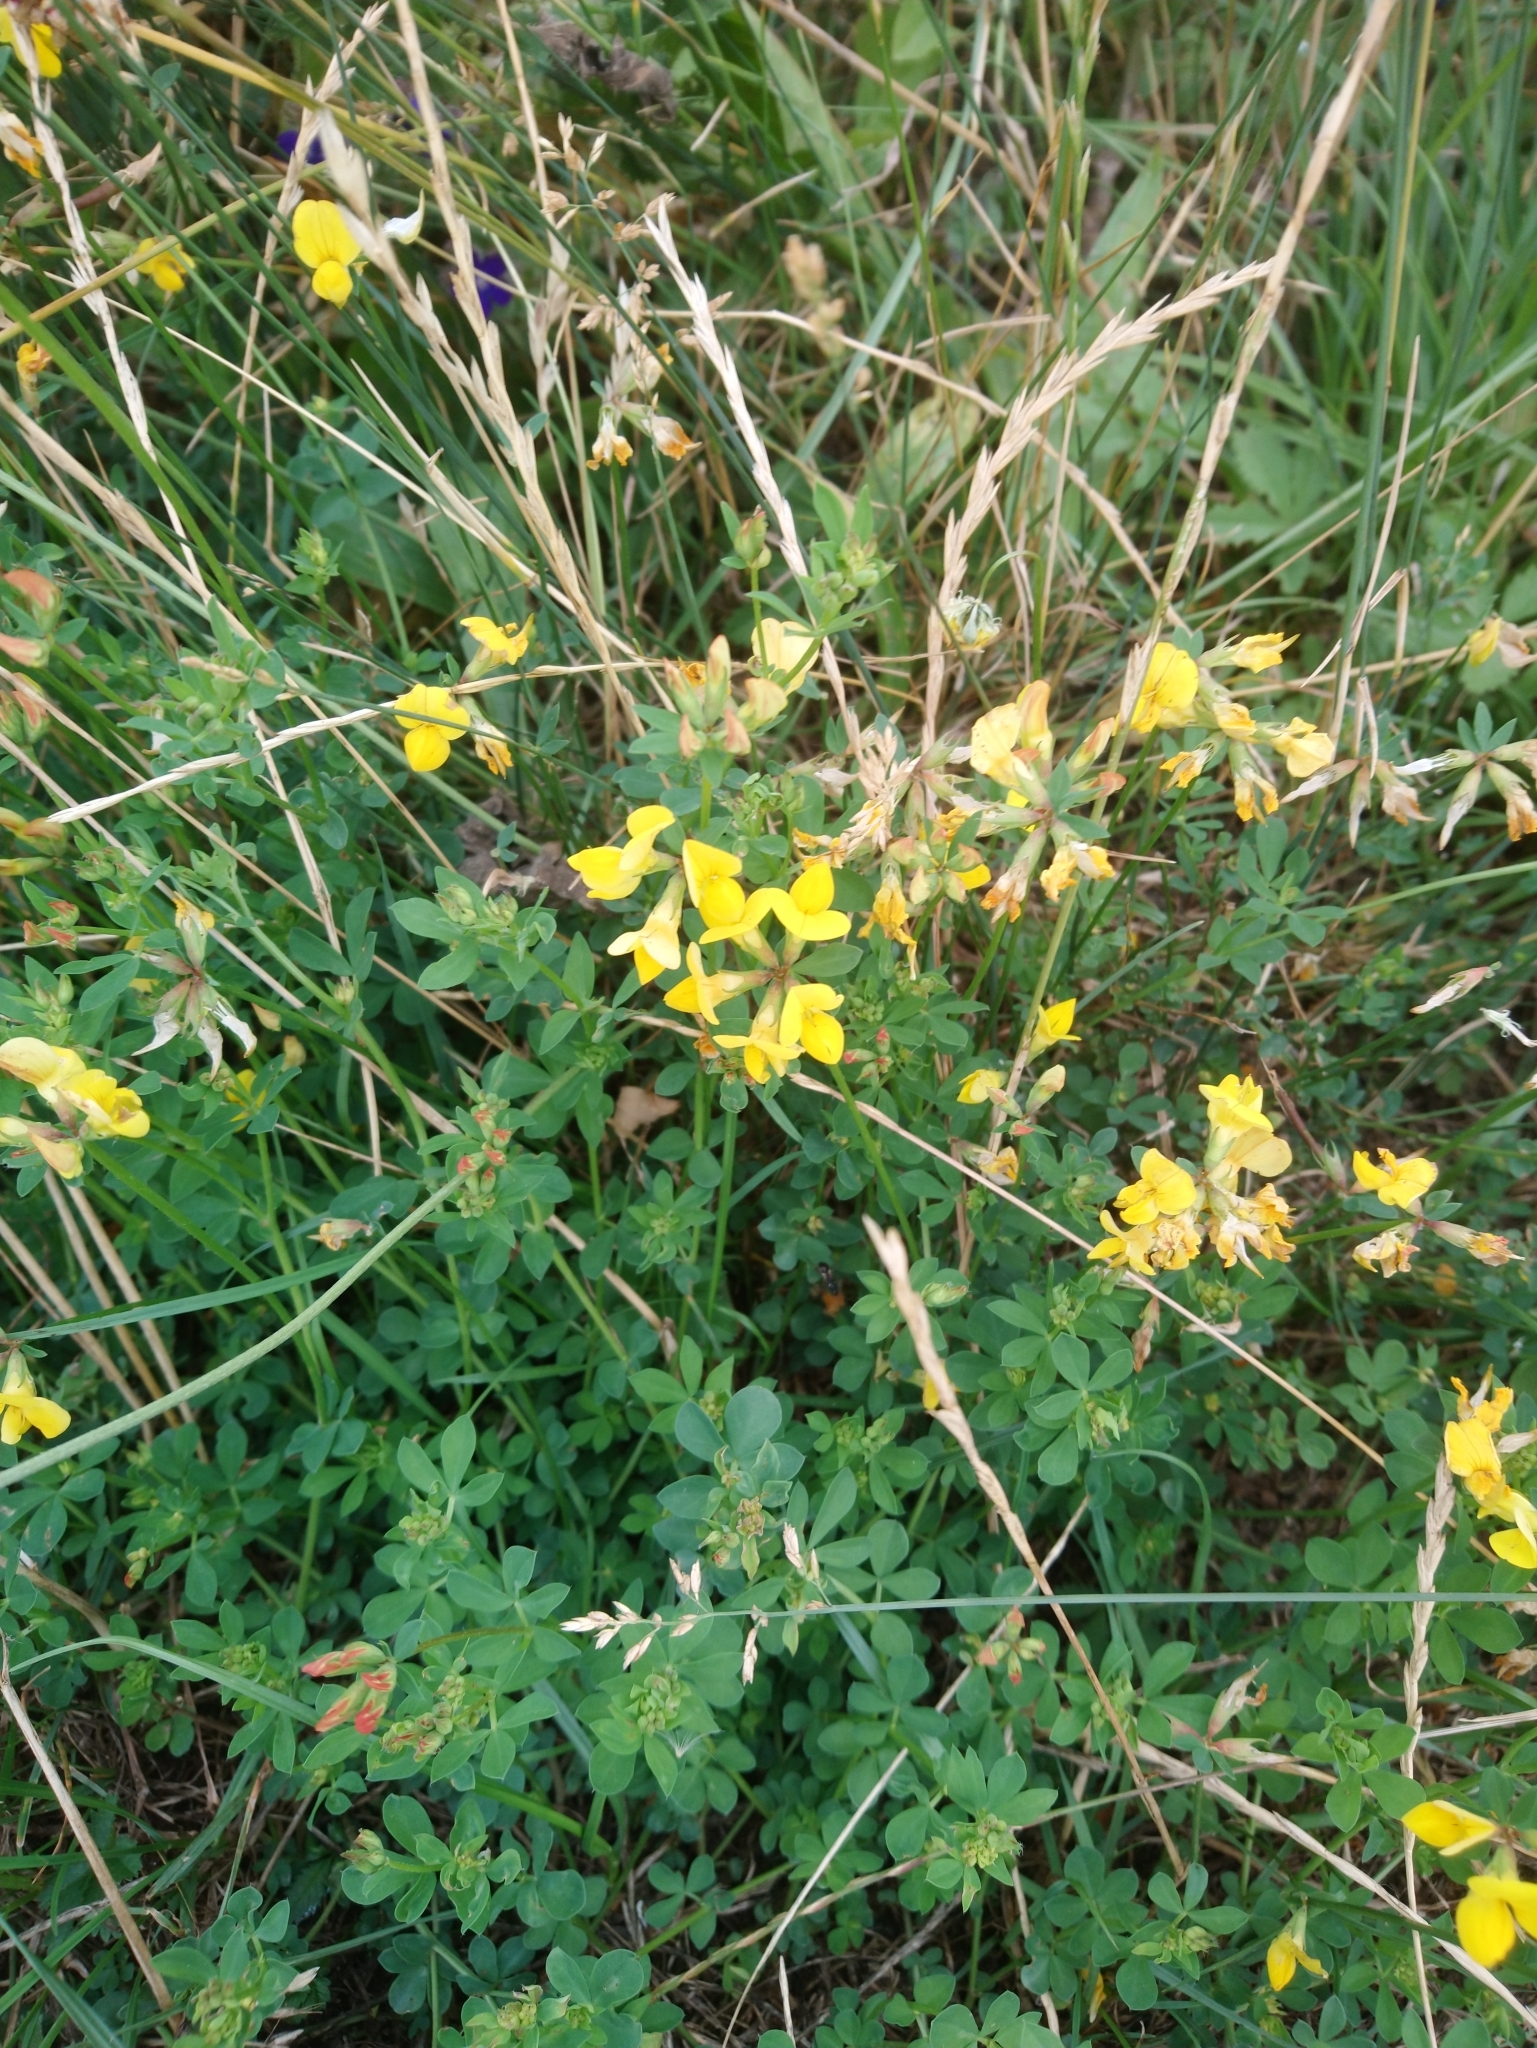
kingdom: Plantae
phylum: Tracheophyta
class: Magnoliopsida
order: Fabales
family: Fabaceae
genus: Lotus
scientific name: Lotus corniculatus
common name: Common bird's-foot-trefoil
